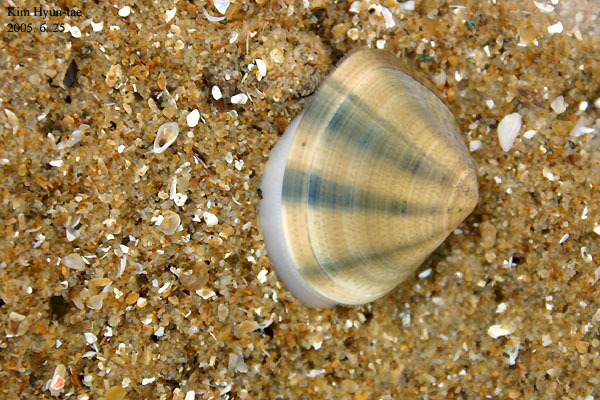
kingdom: Animalia
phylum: Mollusca
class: Bivalvia
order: Venerida
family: Veneridae
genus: Macridiscus
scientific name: Macridiscus multifarius
